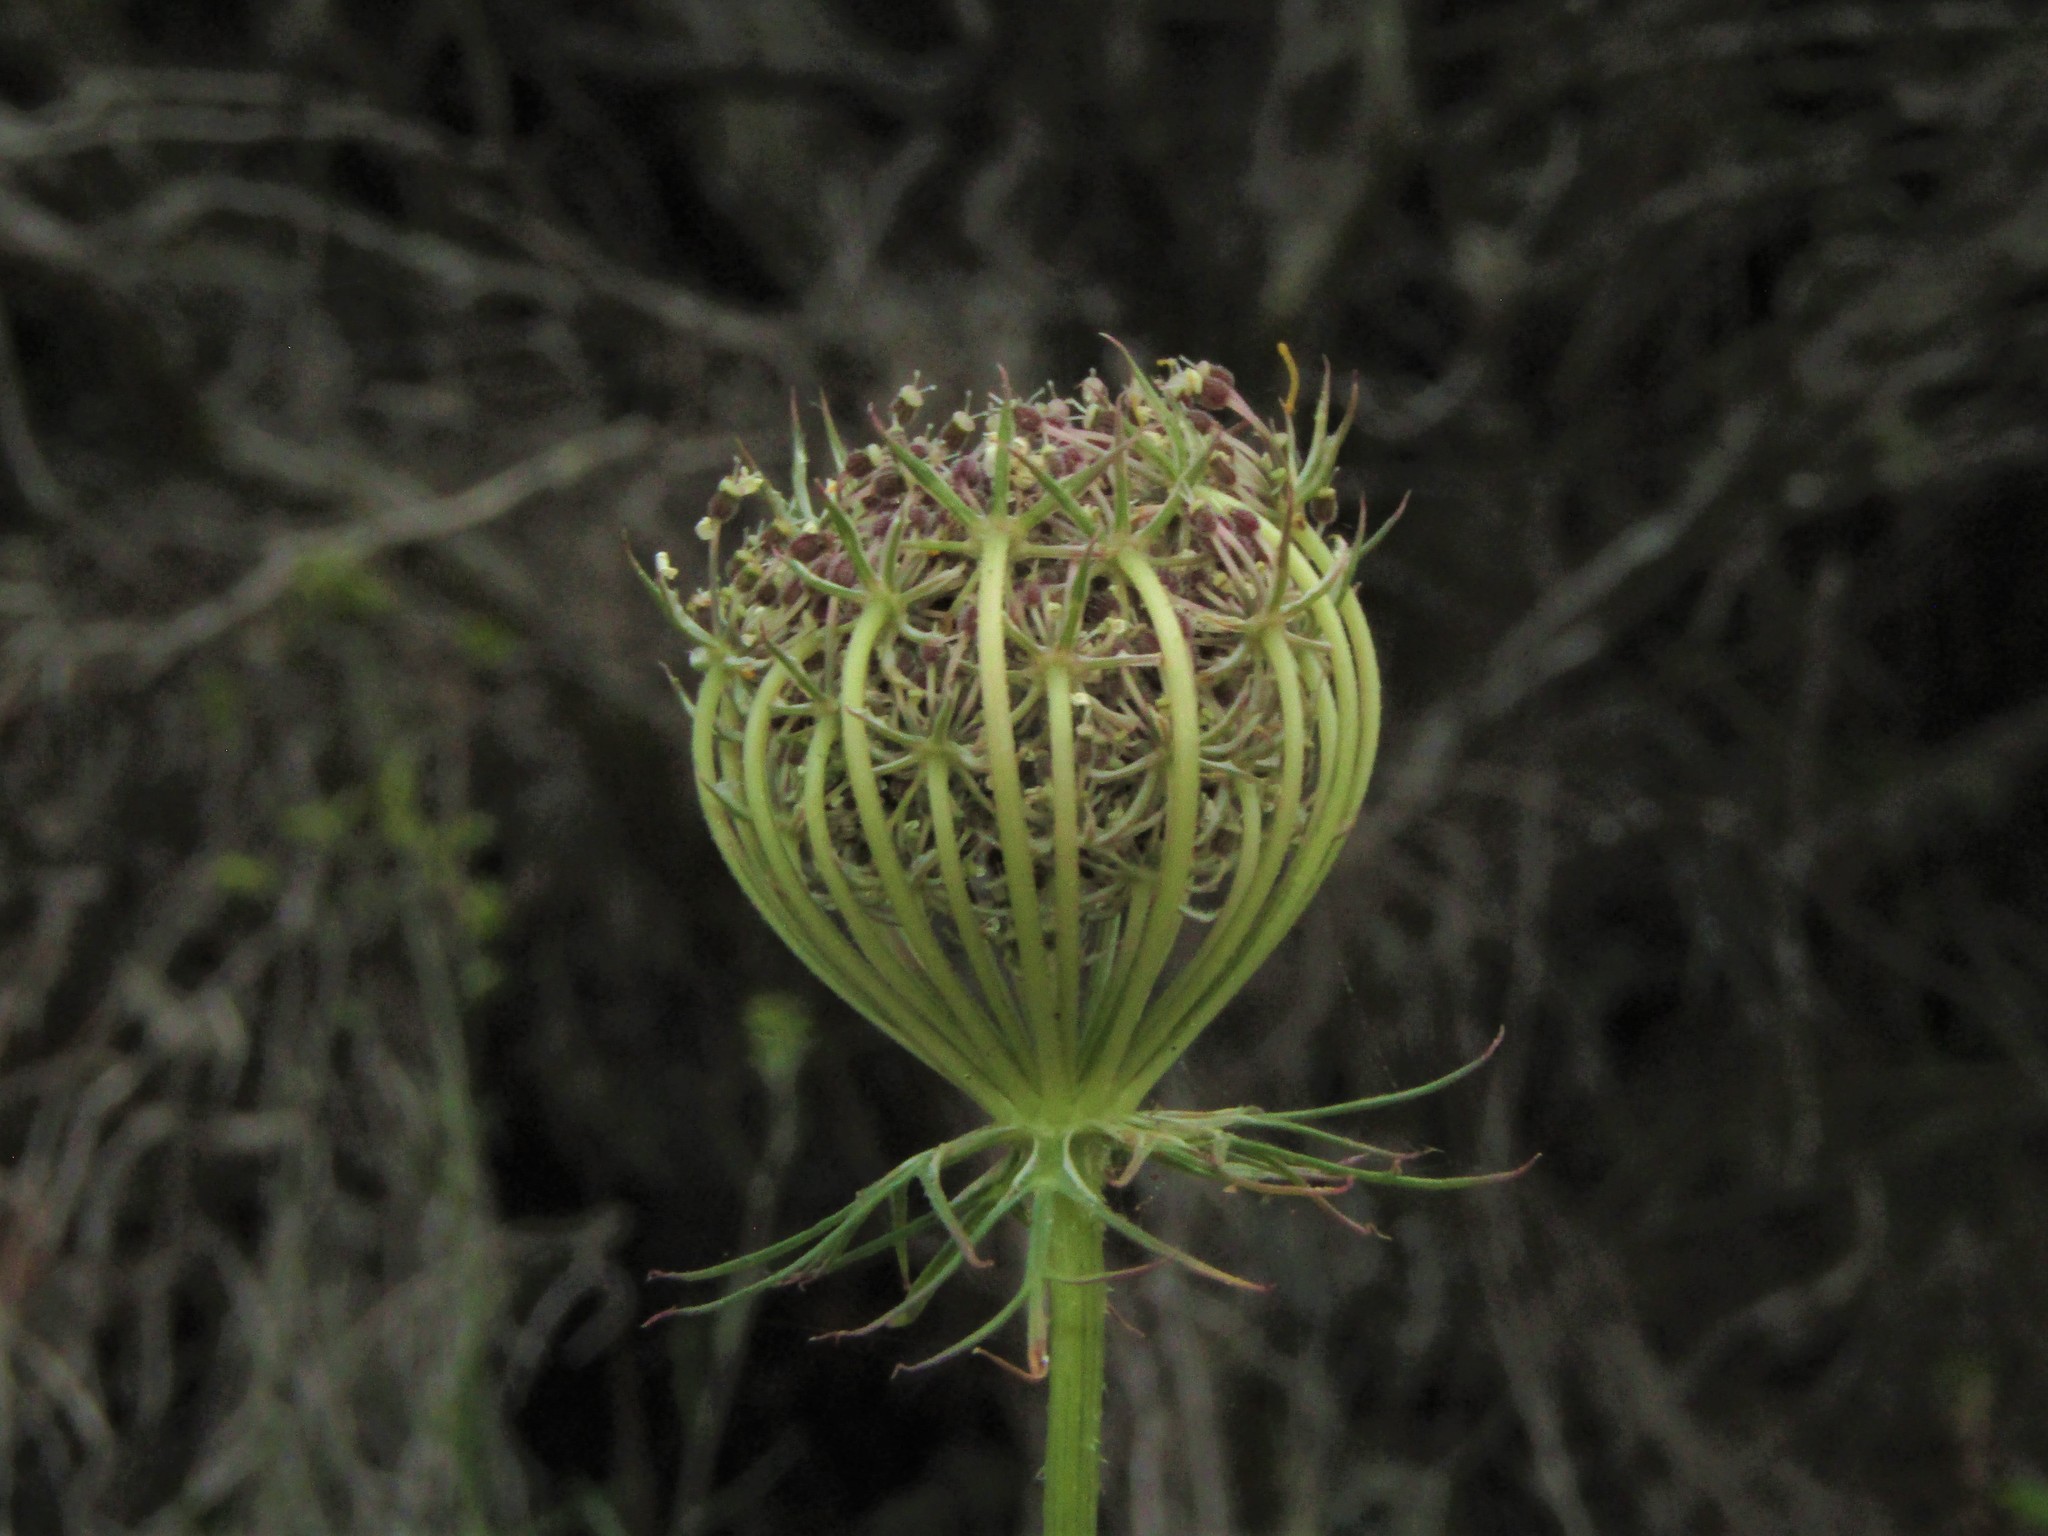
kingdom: Plantae
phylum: Tracheophyta
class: Magnoliopsida
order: Apiales
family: Apiaceae
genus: Daucus
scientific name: Daucus carota
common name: Wild carrot
